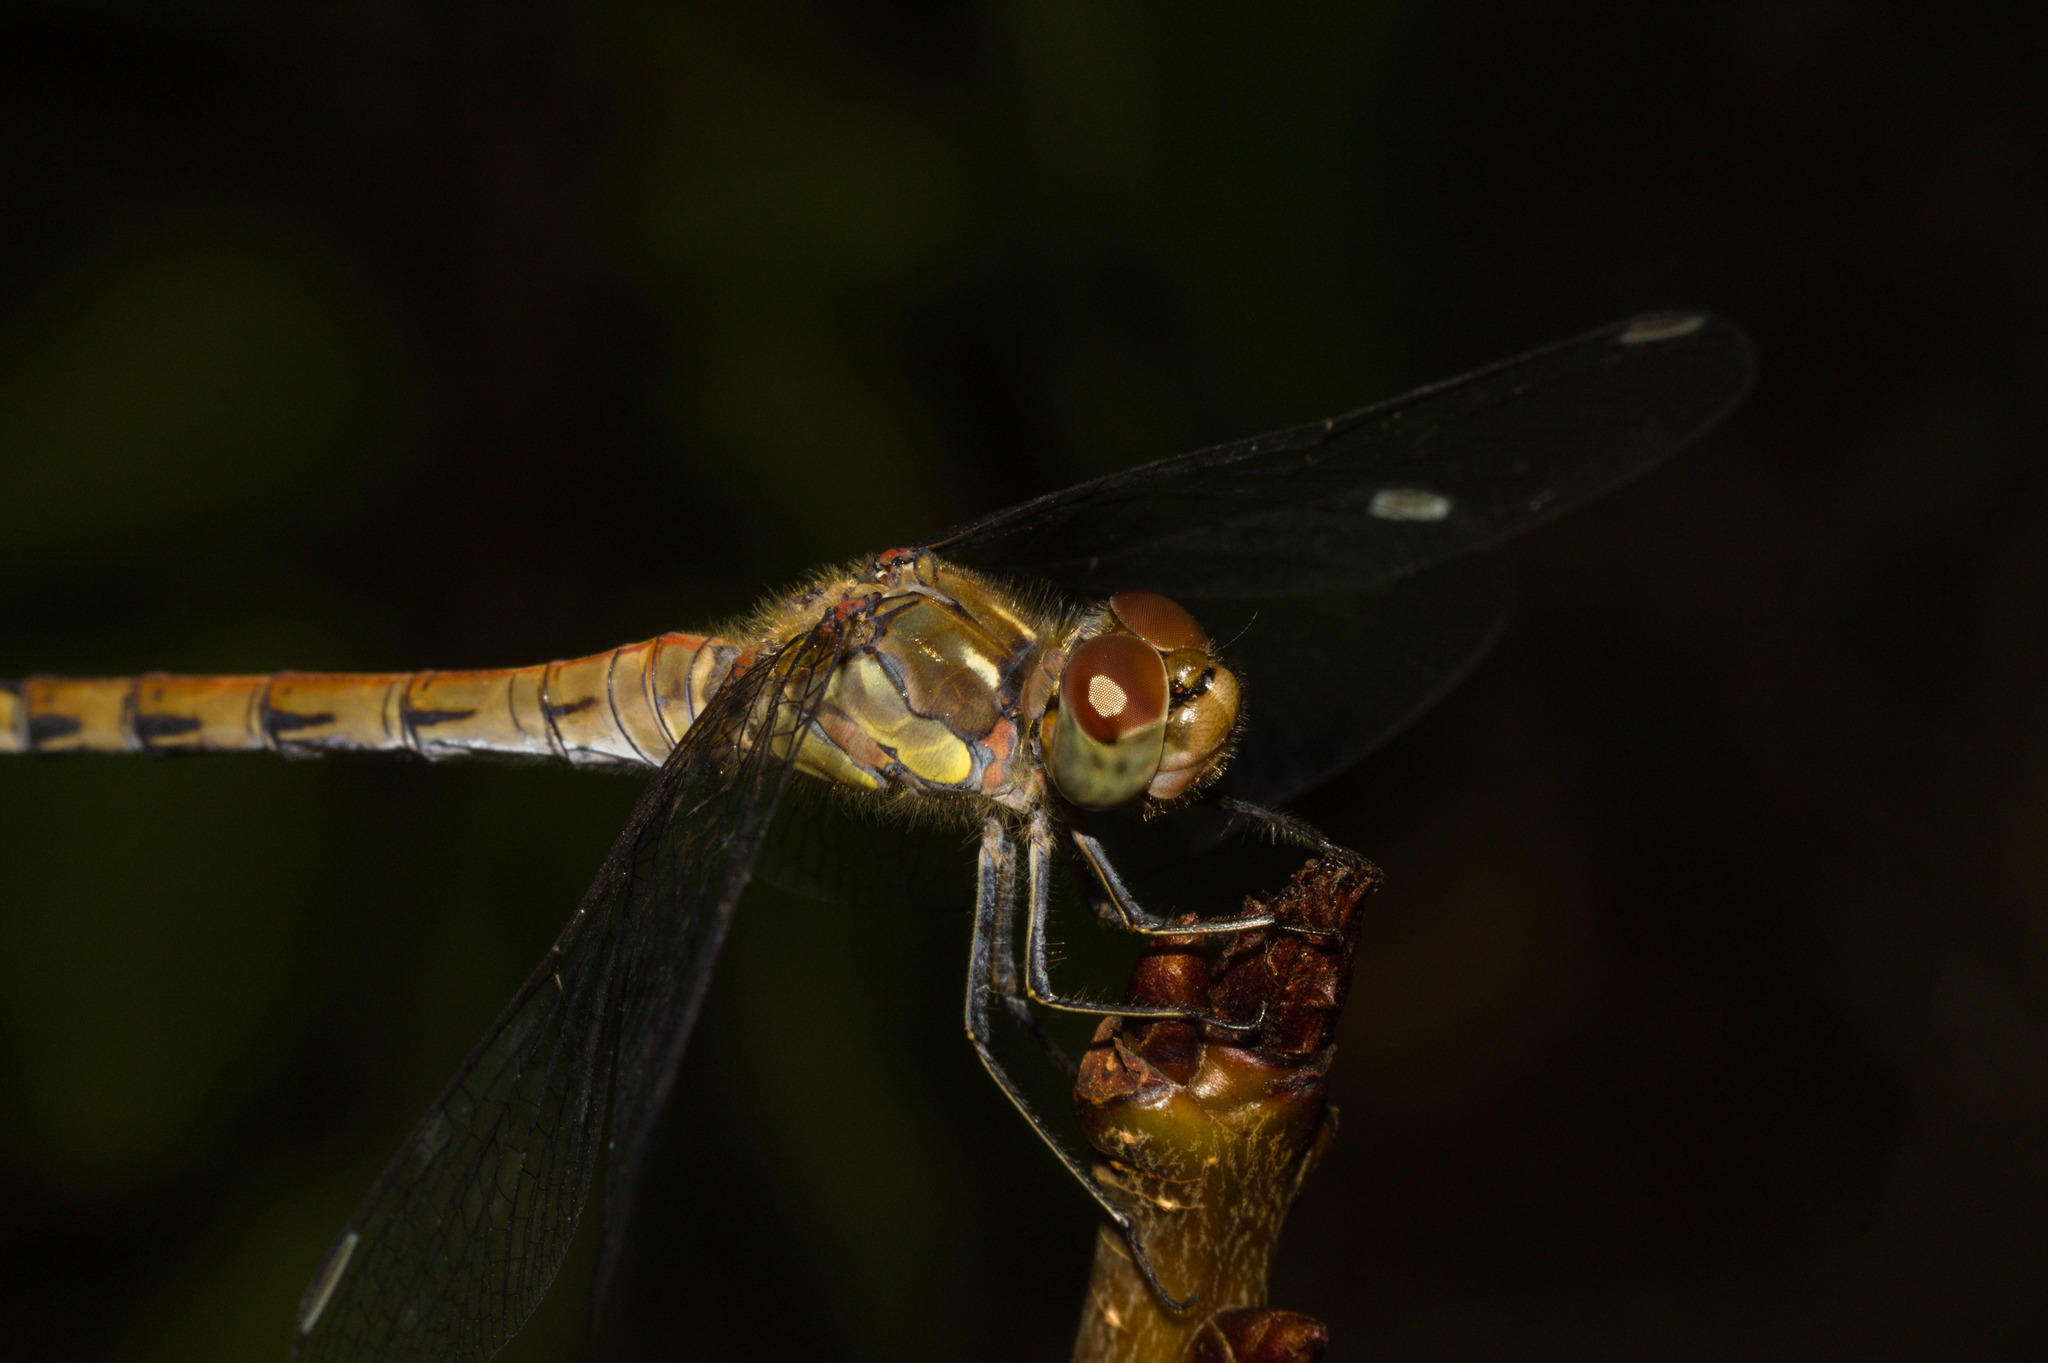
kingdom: Animalia
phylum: Arthropoda
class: Insecta
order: Odonata
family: Libellulidae
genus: Sympetrum
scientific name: Sympetrum striolatum
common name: Common darter
